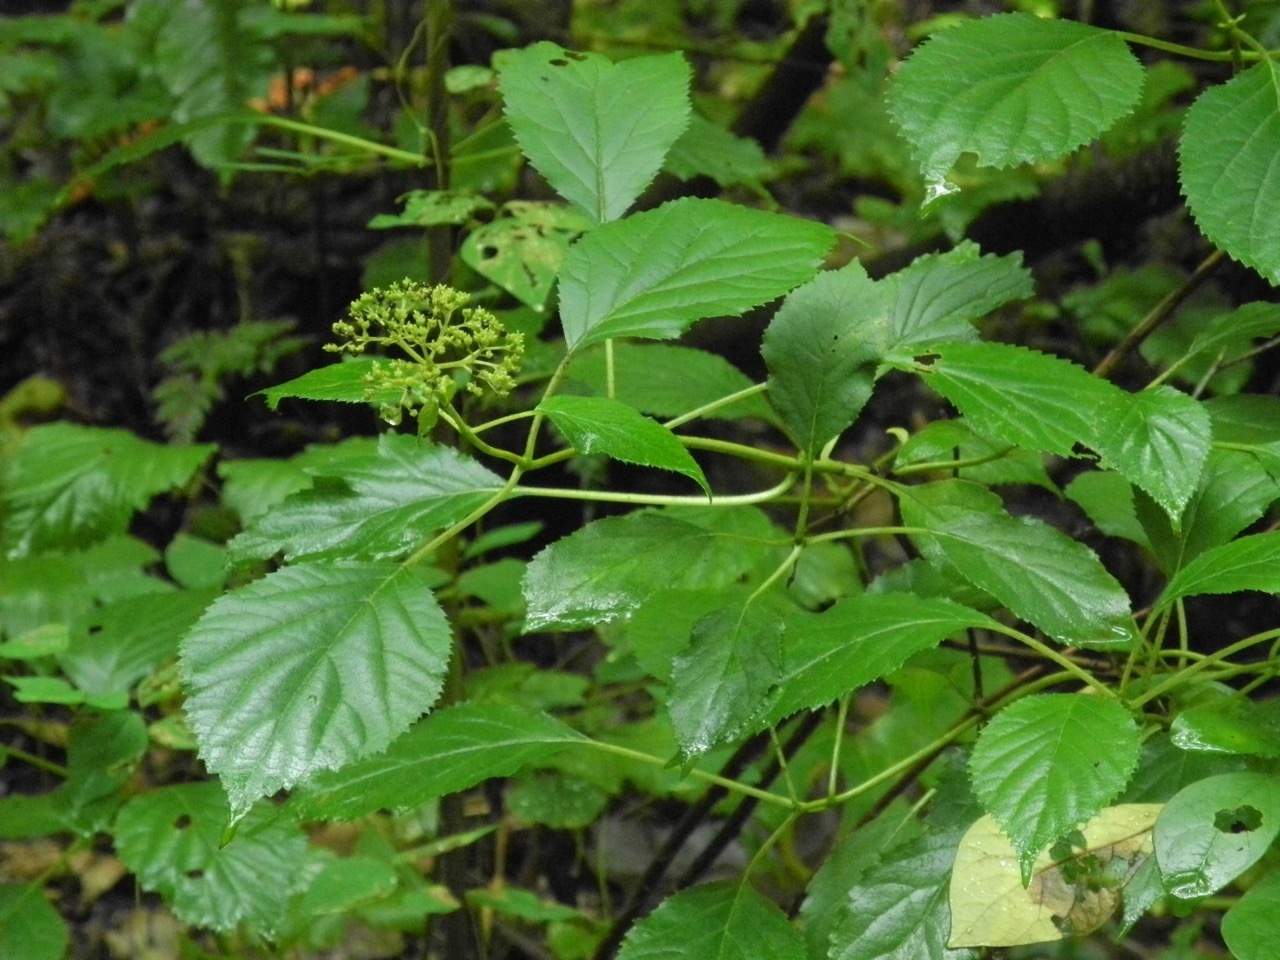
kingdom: Plantae
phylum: Tracheophyta
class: Magnoliopsida
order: Cornales
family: Hydrangeaceae
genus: Hydrangea
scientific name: Hydrangea arborescens
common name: Sevenbark
